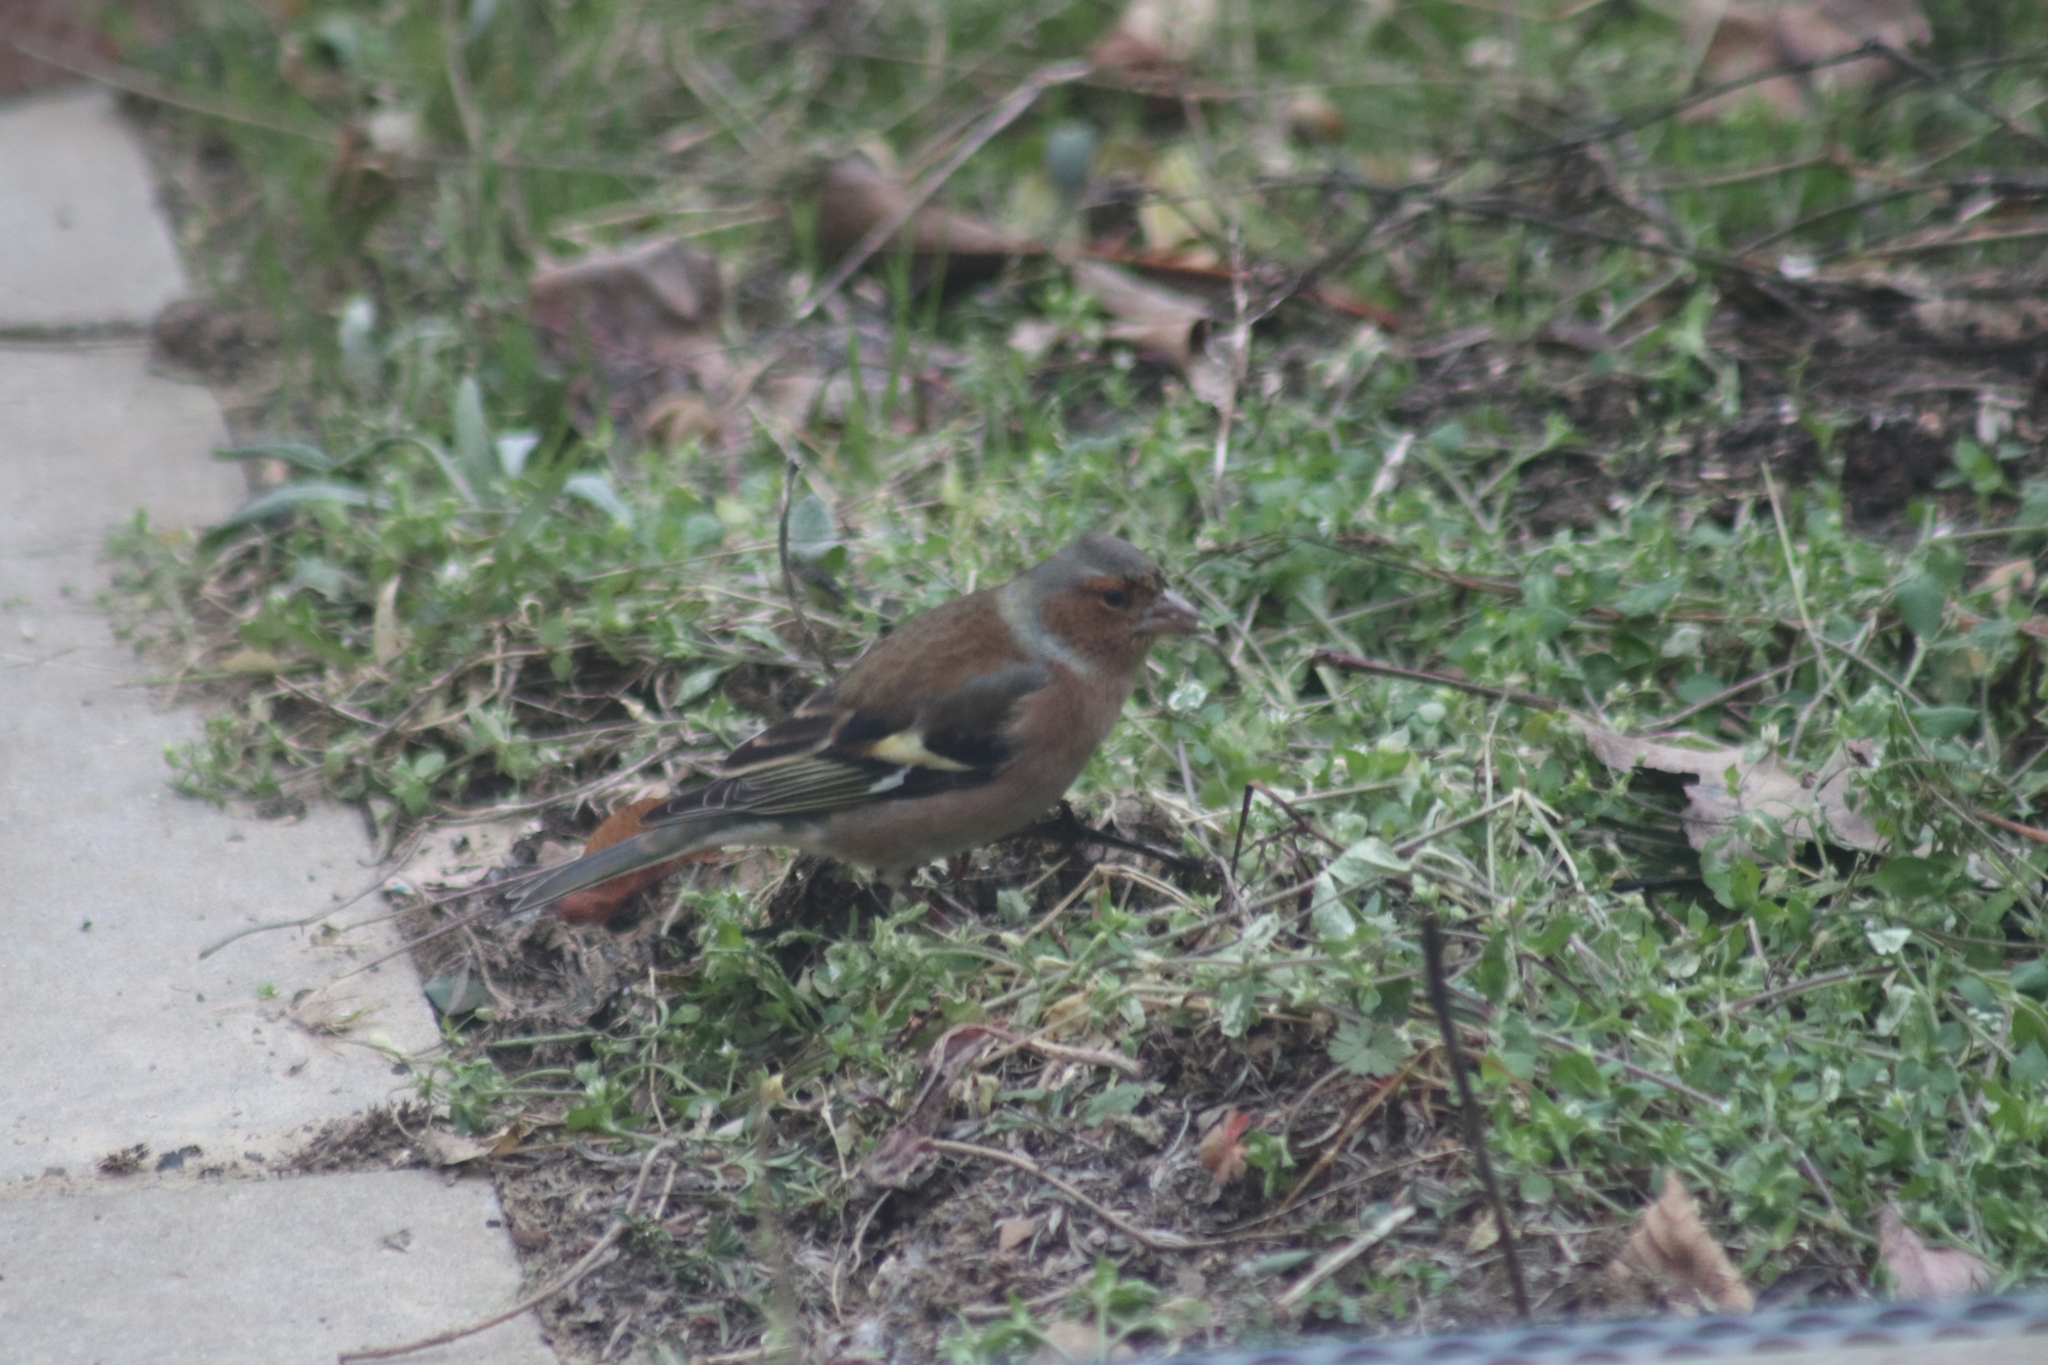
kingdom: Animalia
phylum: Chordata
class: Aves
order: Passeriformes
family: Fringillidae
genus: Fringilla
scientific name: Fringilla coelebs
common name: Common chaffinch
